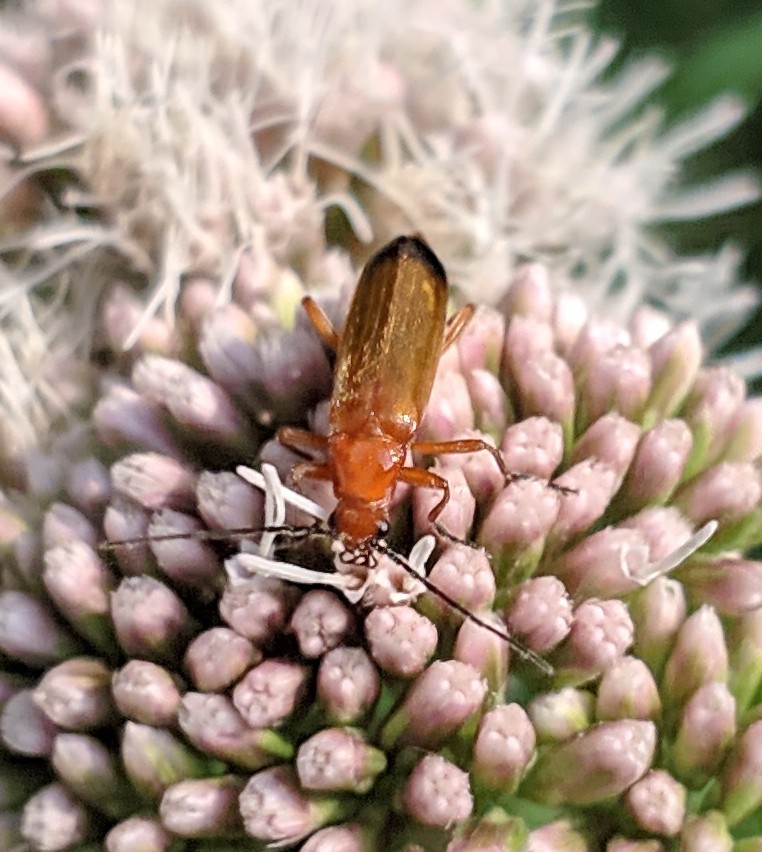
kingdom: Animalia
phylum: Arthropoda
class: Insecta
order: Coleoptera
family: Cantharidae
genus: Rhagonycha
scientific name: Rhagonycha fulva
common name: Common red soldier beetle
